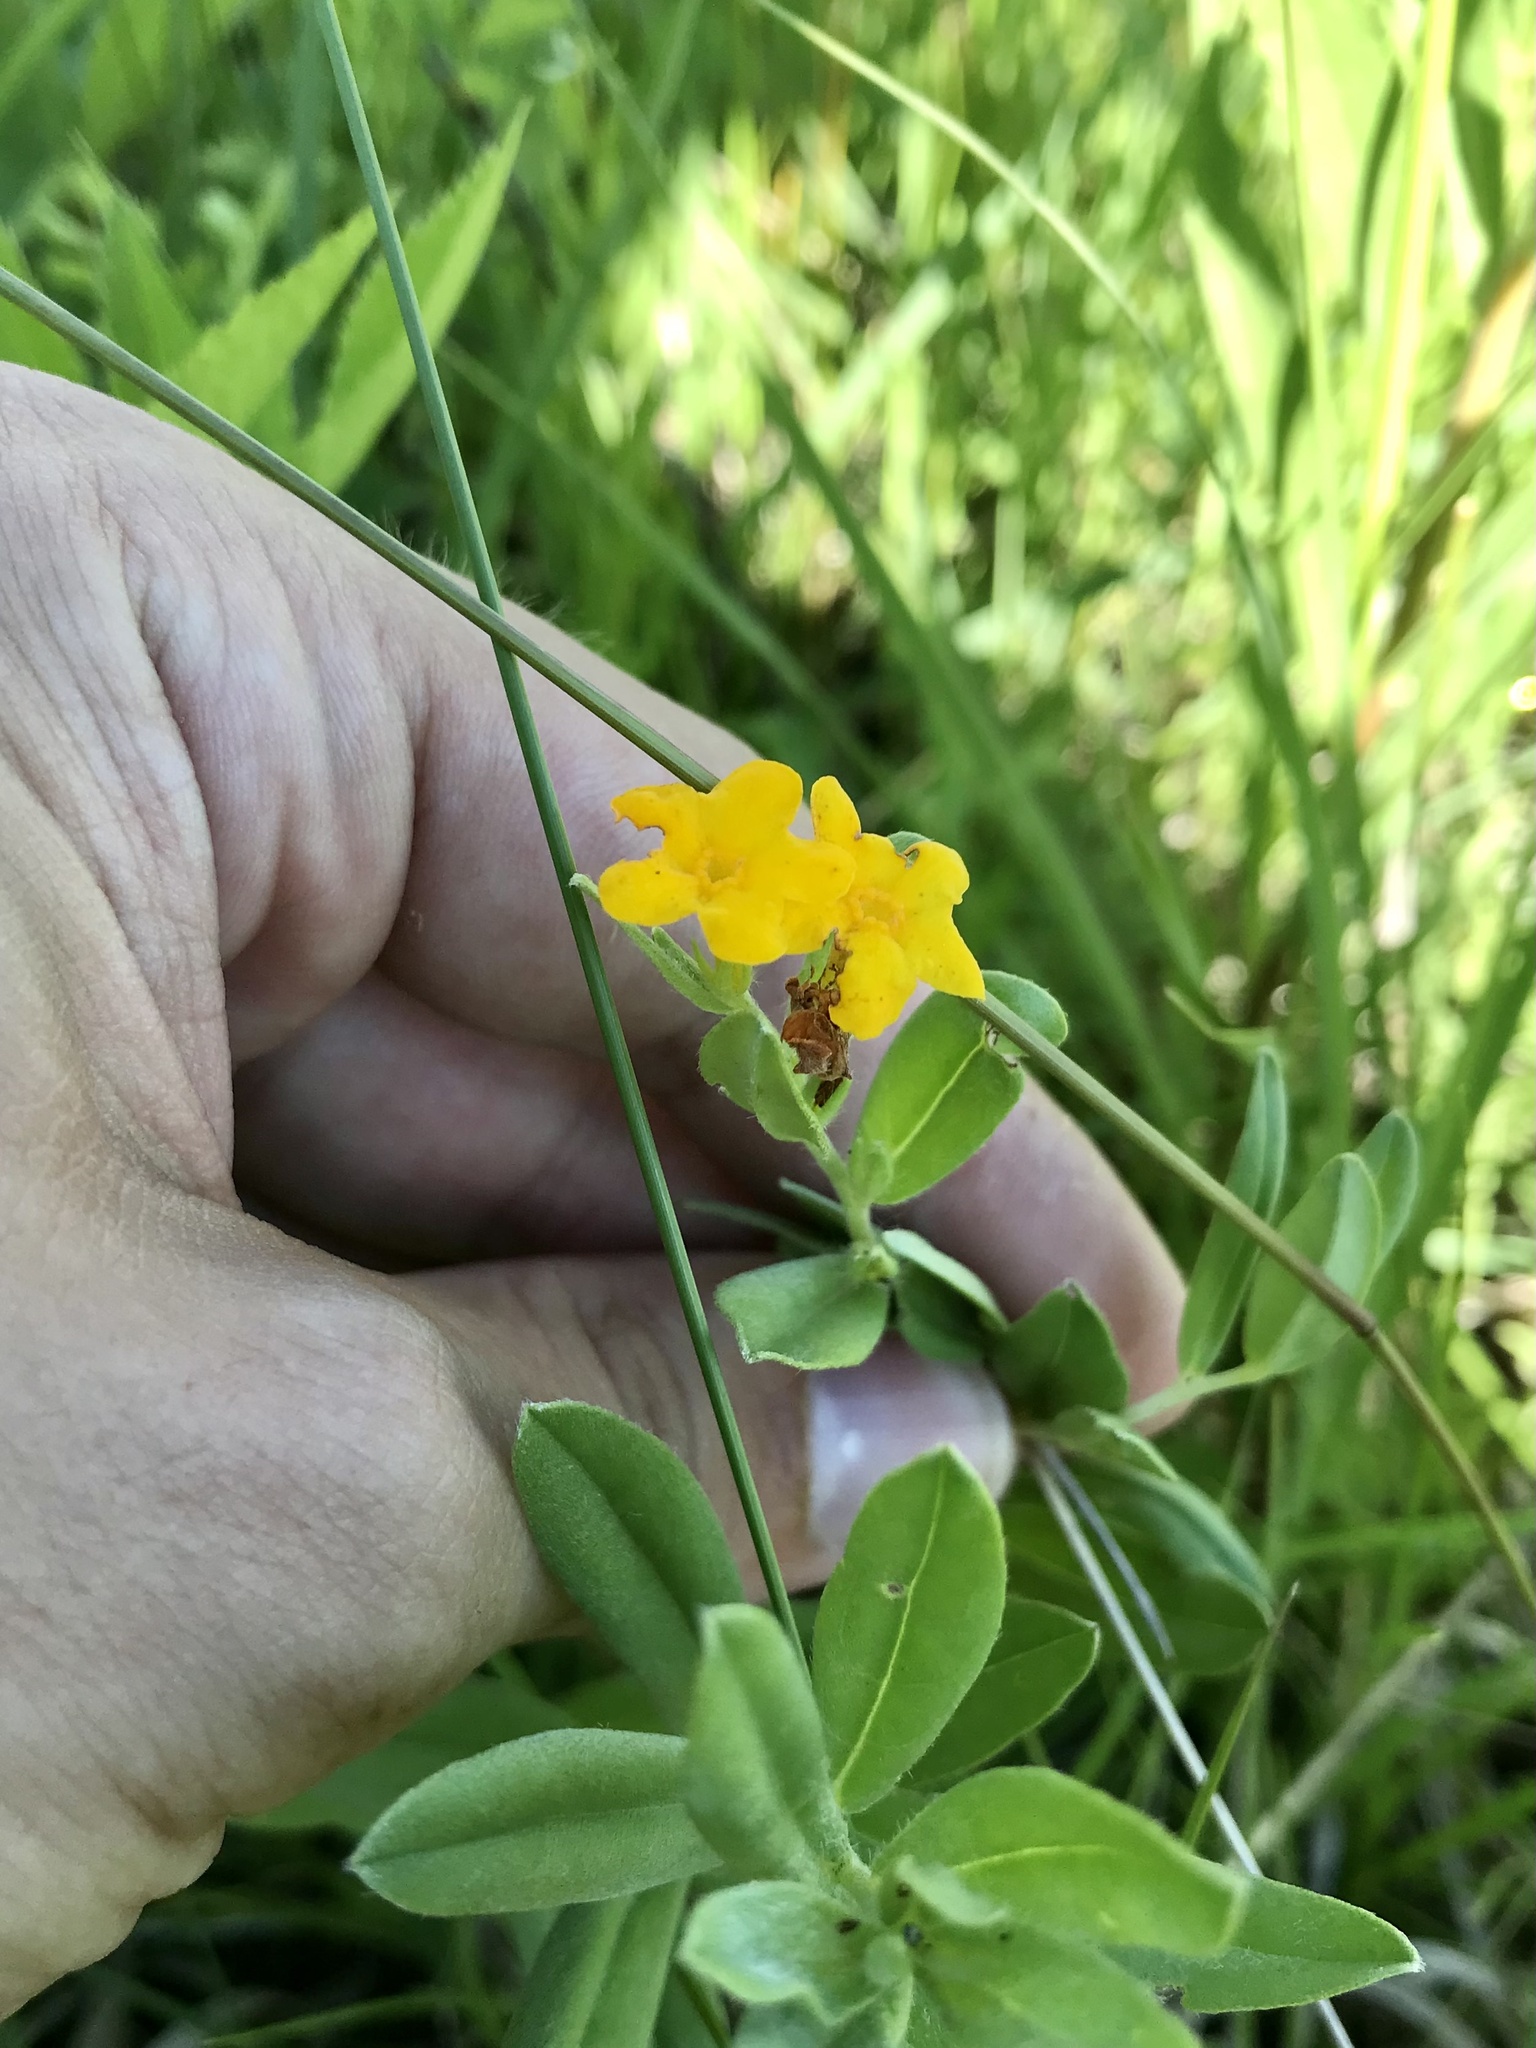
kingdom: Plantae
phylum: Tracheophyta
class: Magnoliopsida
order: Boraginales
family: Boraginaceae
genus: Lithospermum
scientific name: Lithospermum canescens
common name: Hoary puccoon
